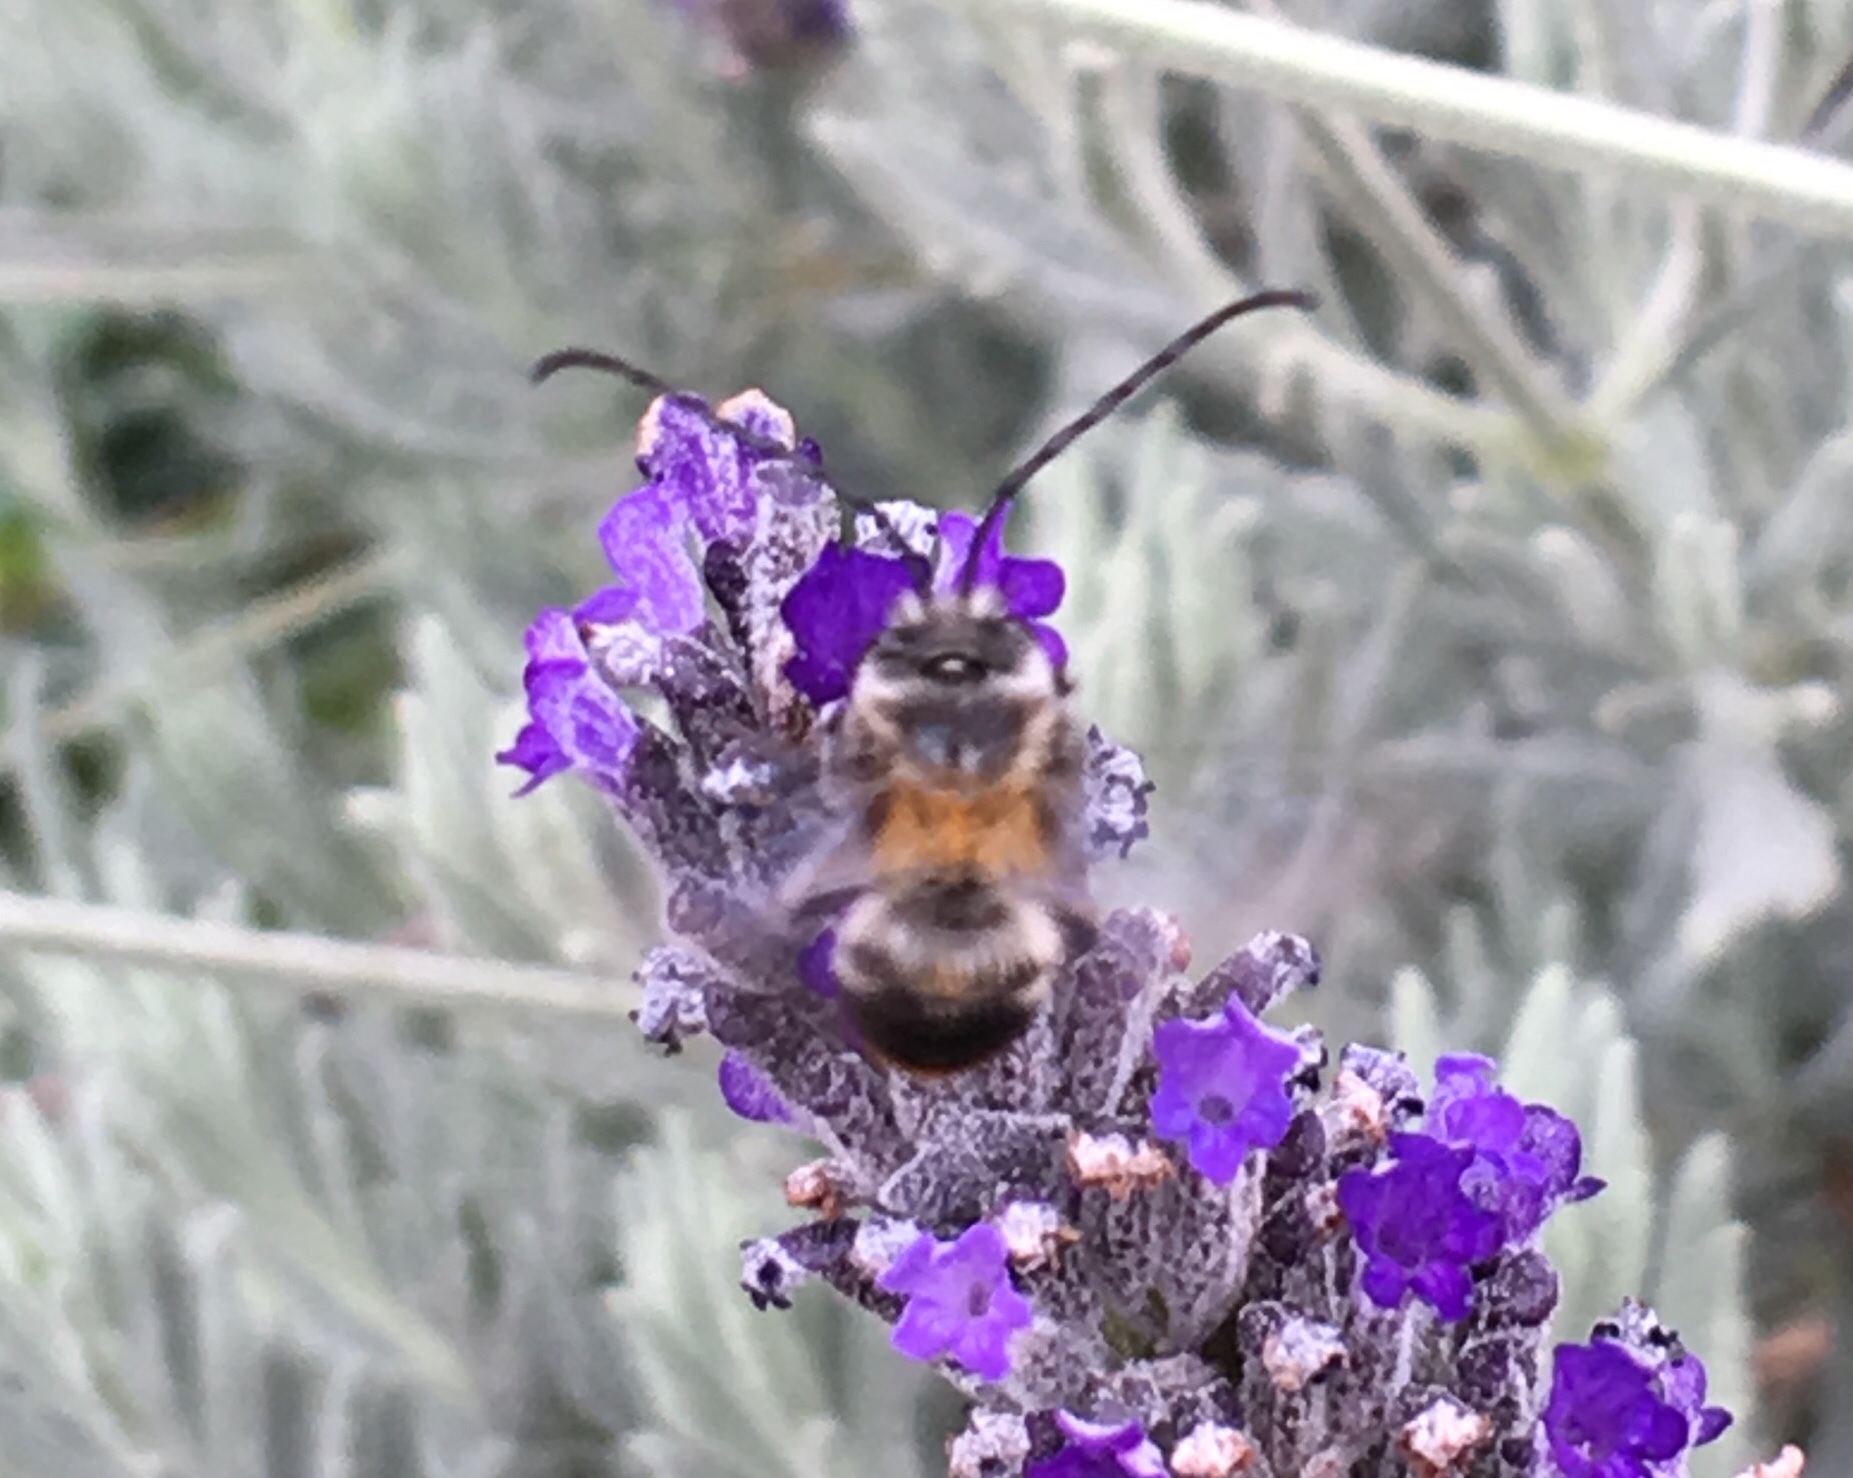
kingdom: Animalia
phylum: Arthropoda
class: Insecta
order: Hymenoptera
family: Apidae
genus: Thygater
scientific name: Thygater aethiops
